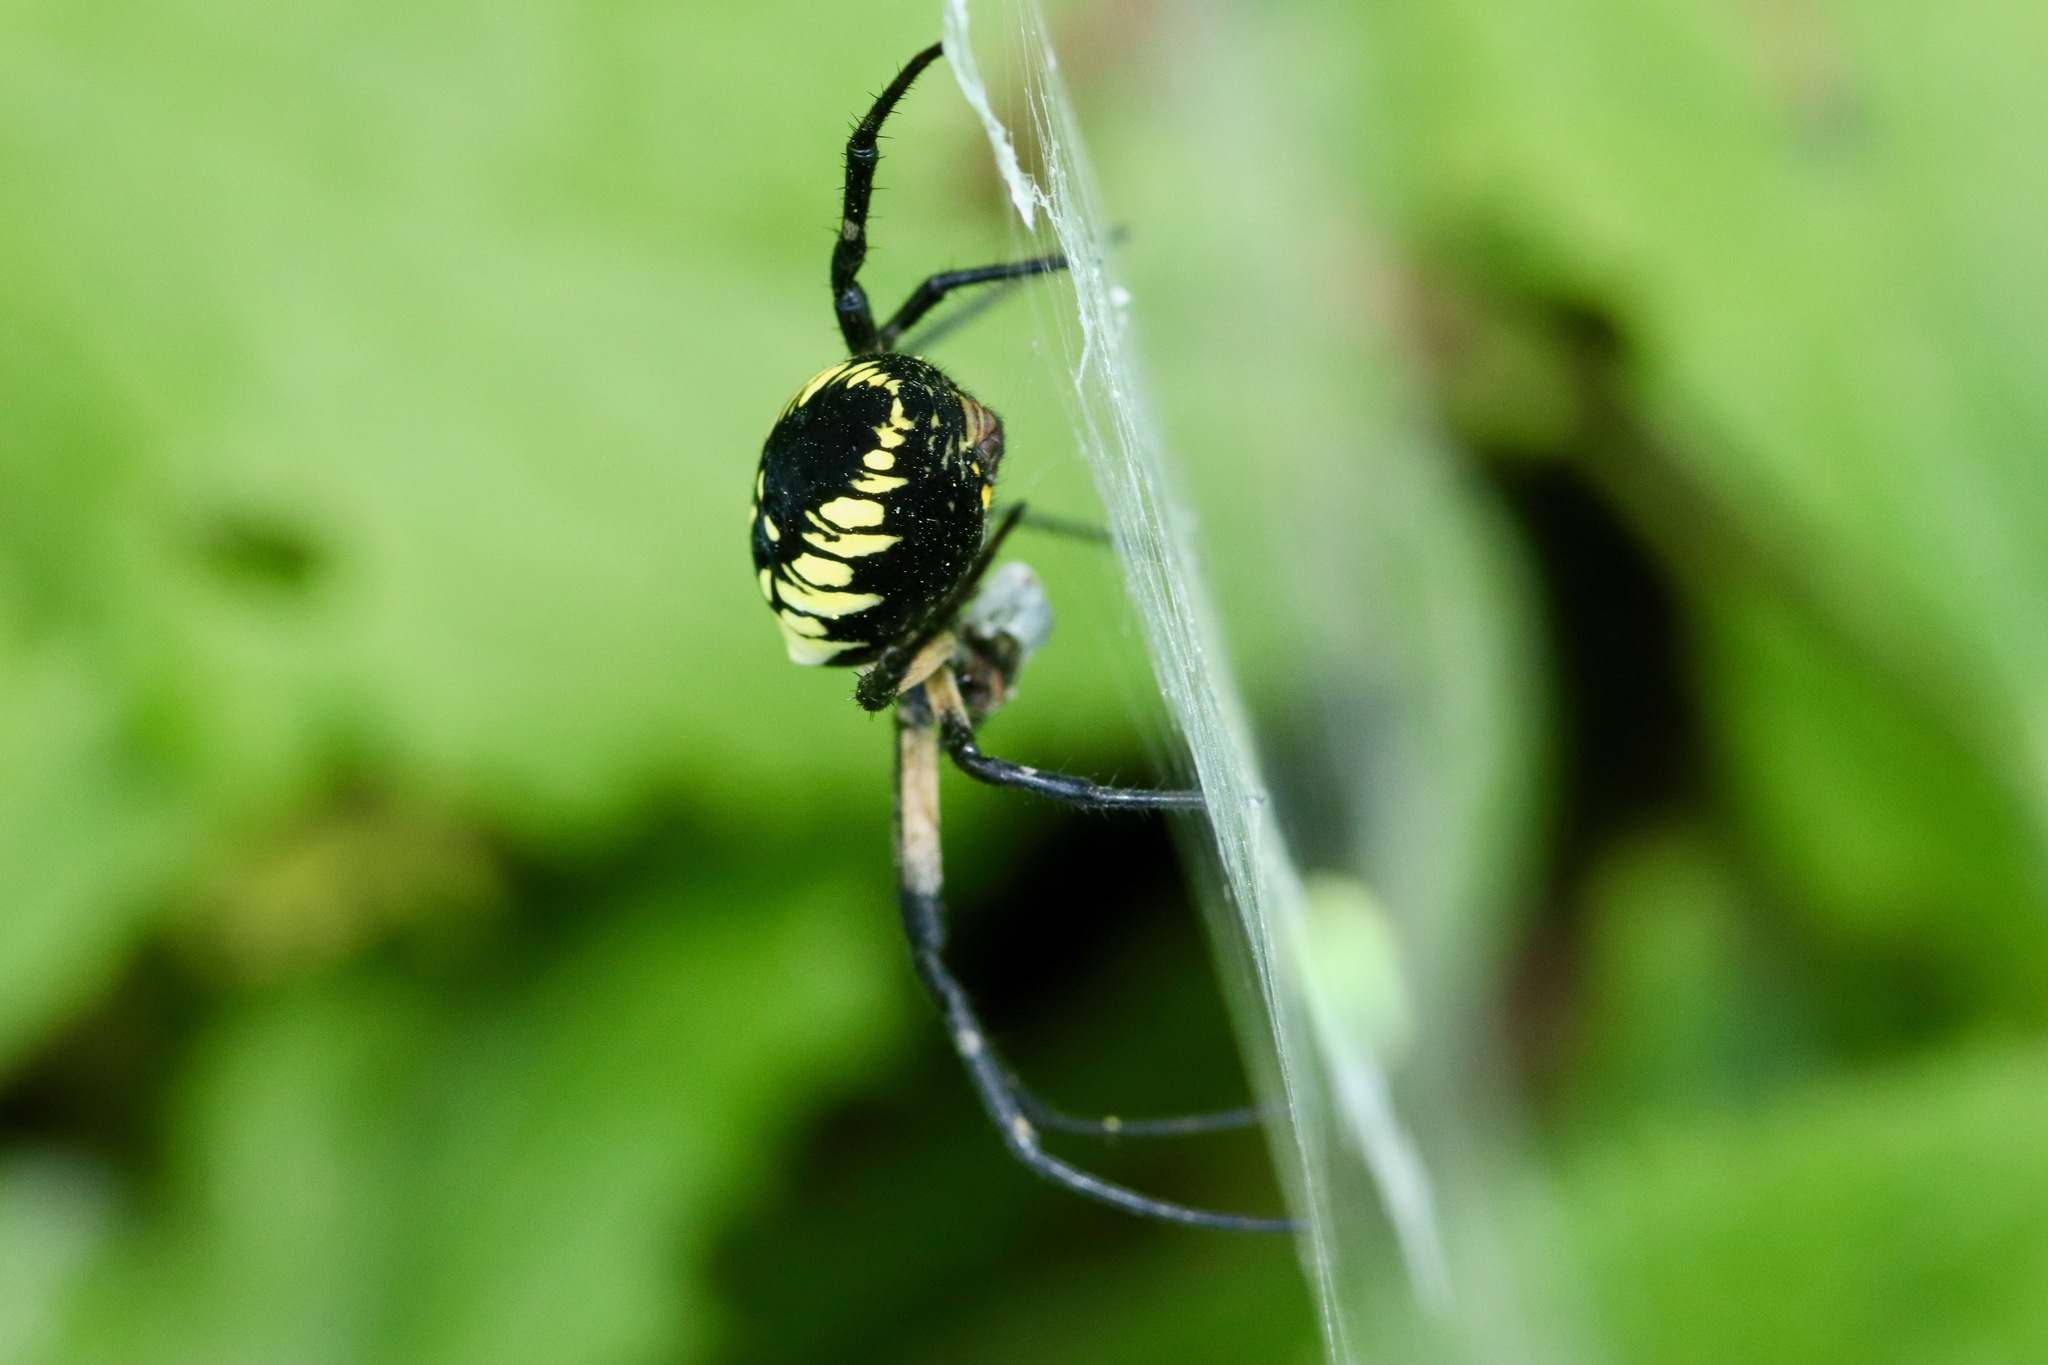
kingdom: Animalia
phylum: Arthropoda
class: Arachnida
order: Araneae
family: Araneidae
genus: Argiope
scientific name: Argiope aurantia
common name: Orb weavers
